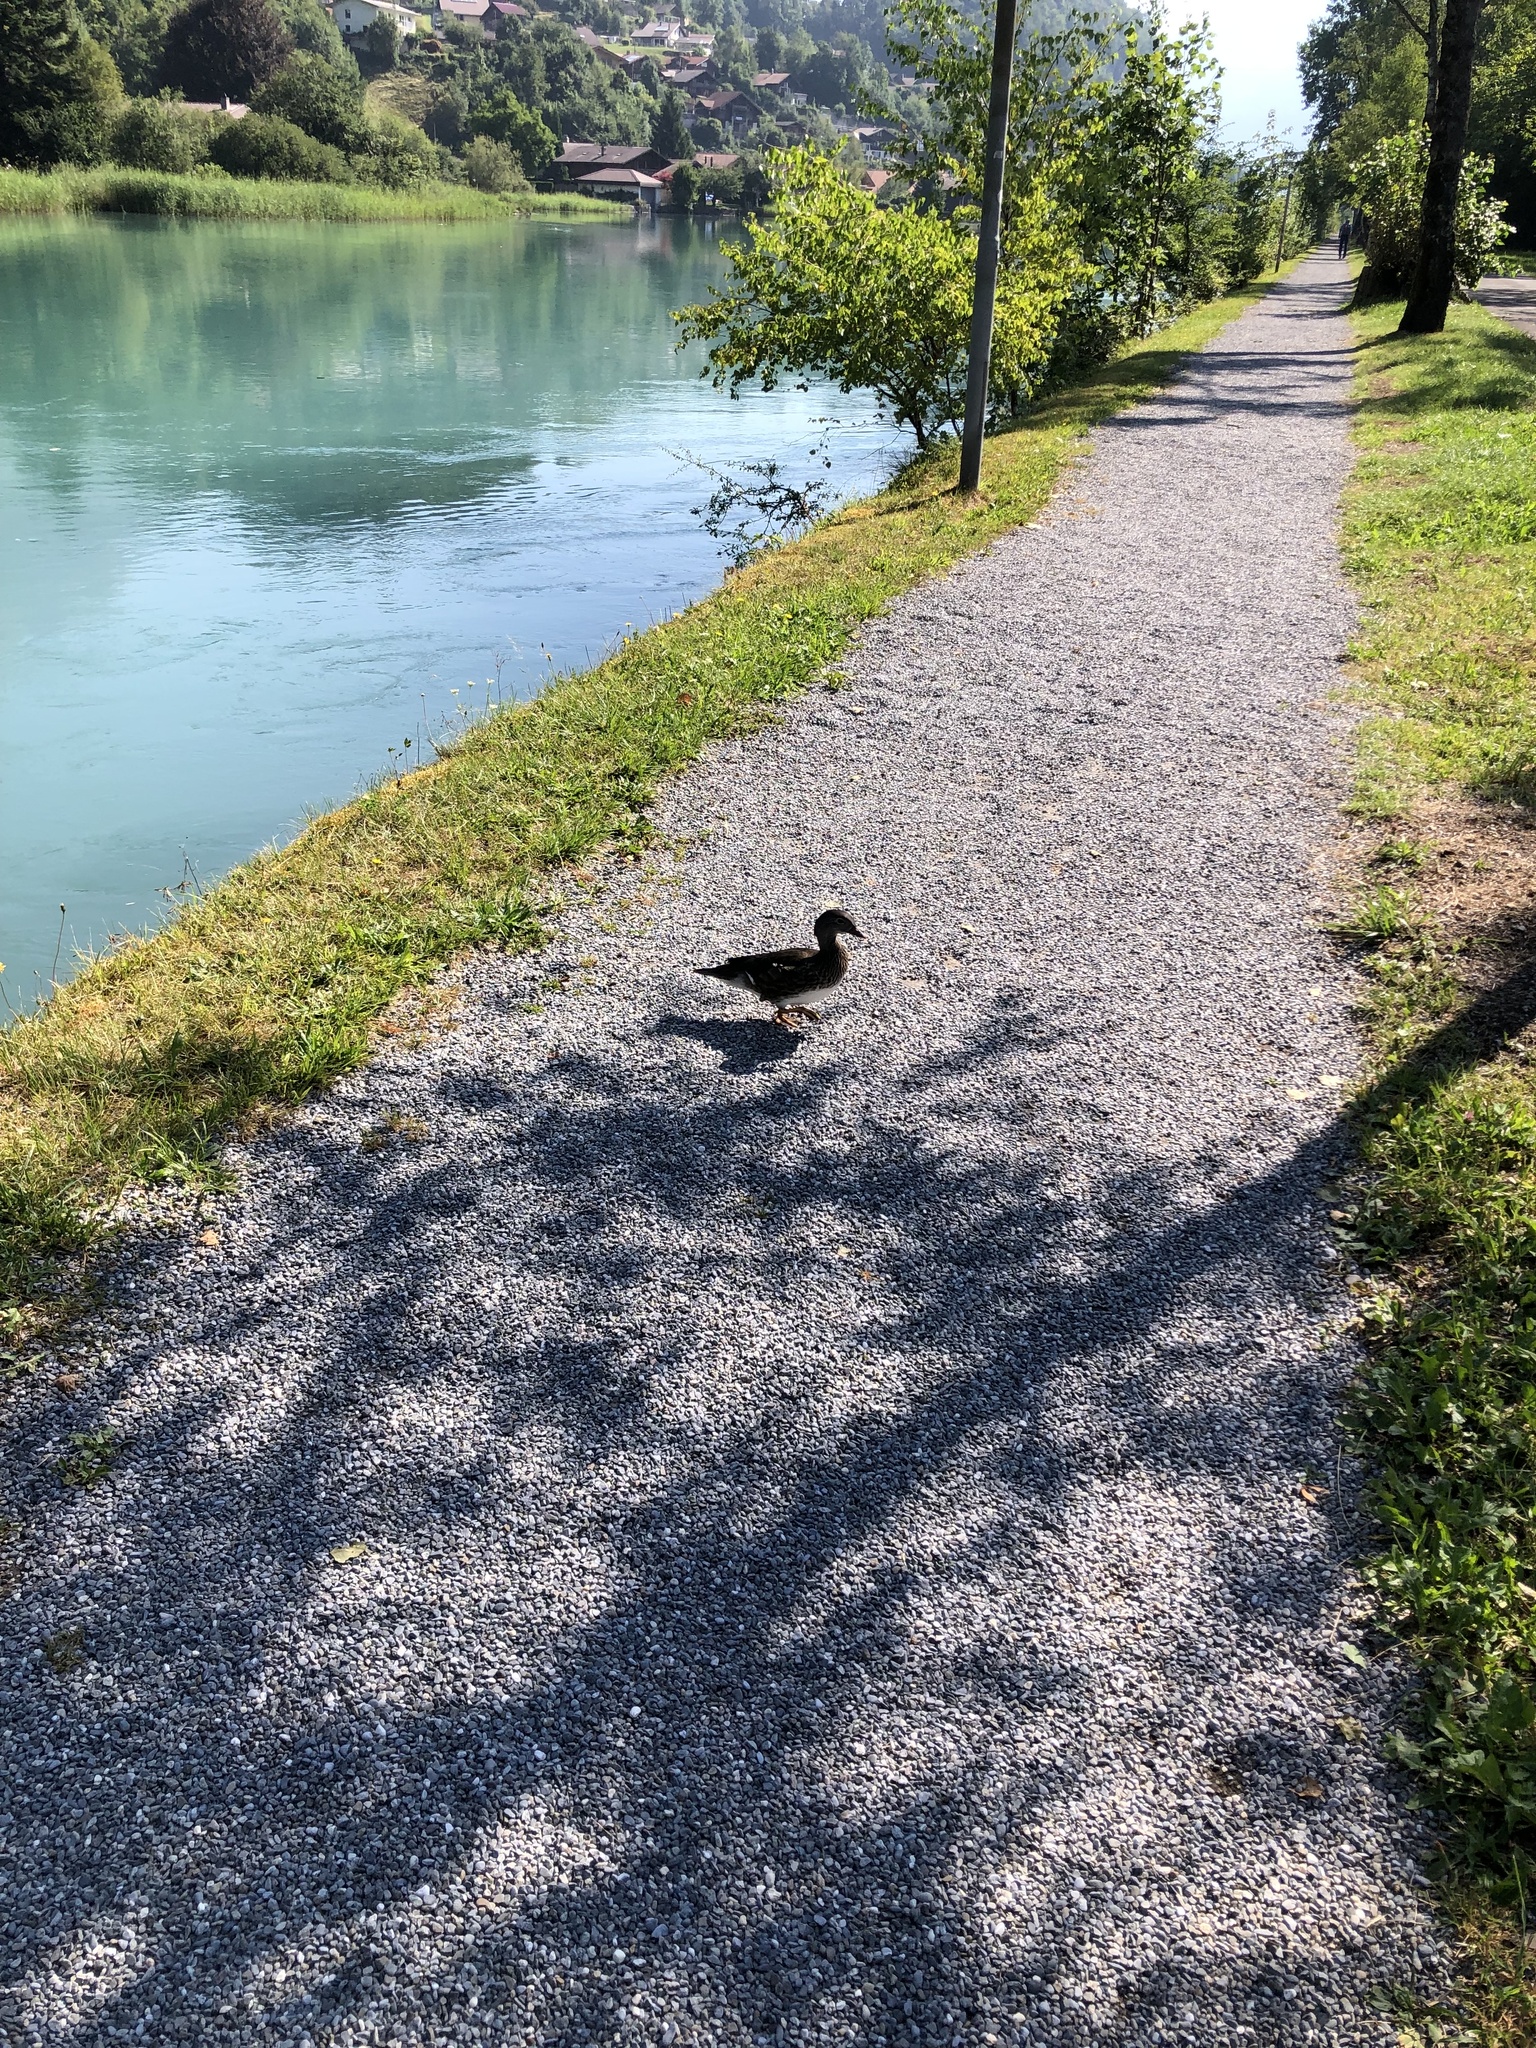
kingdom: Animalia
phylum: Chordata
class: Aves
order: Anseriformes
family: Anatidae
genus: Aix
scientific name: Aix galericulata
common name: Mandarin duck
